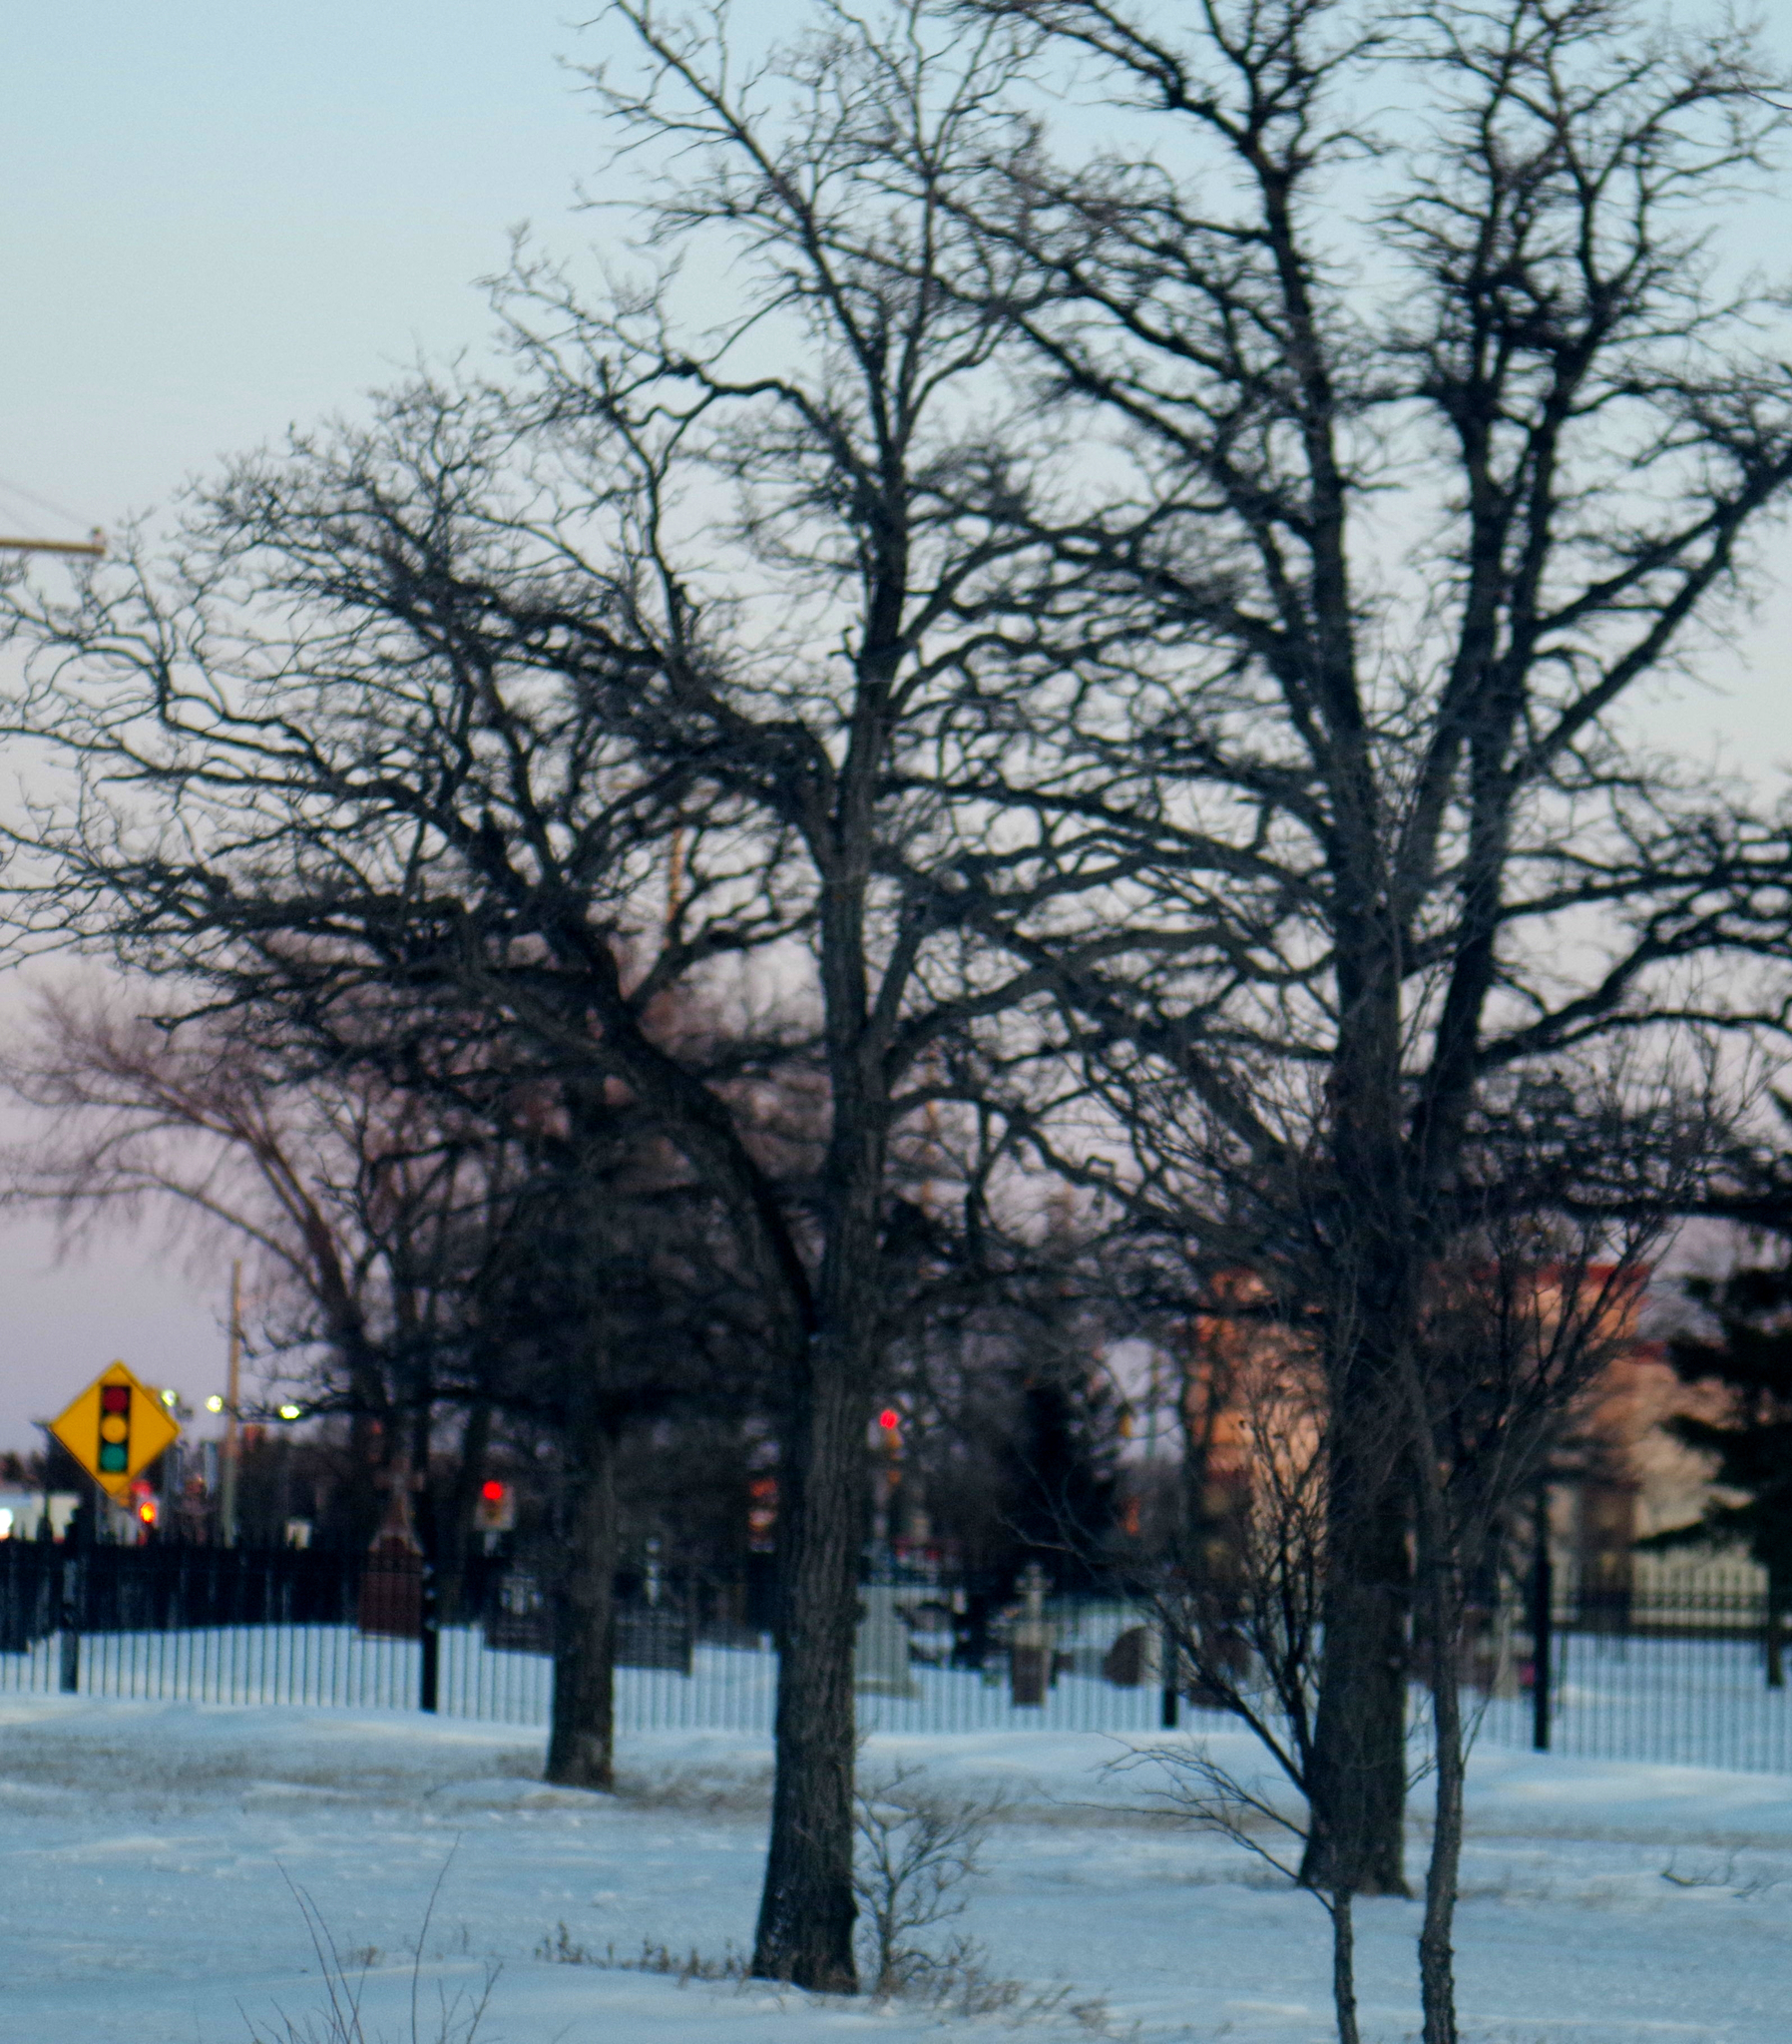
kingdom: Plantae
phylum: Tracheophyta
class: Magnoliopsida
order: Fagales
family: Fagaceae
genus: Quercus
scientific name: Quercus macrocarpa
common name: Bur oak
